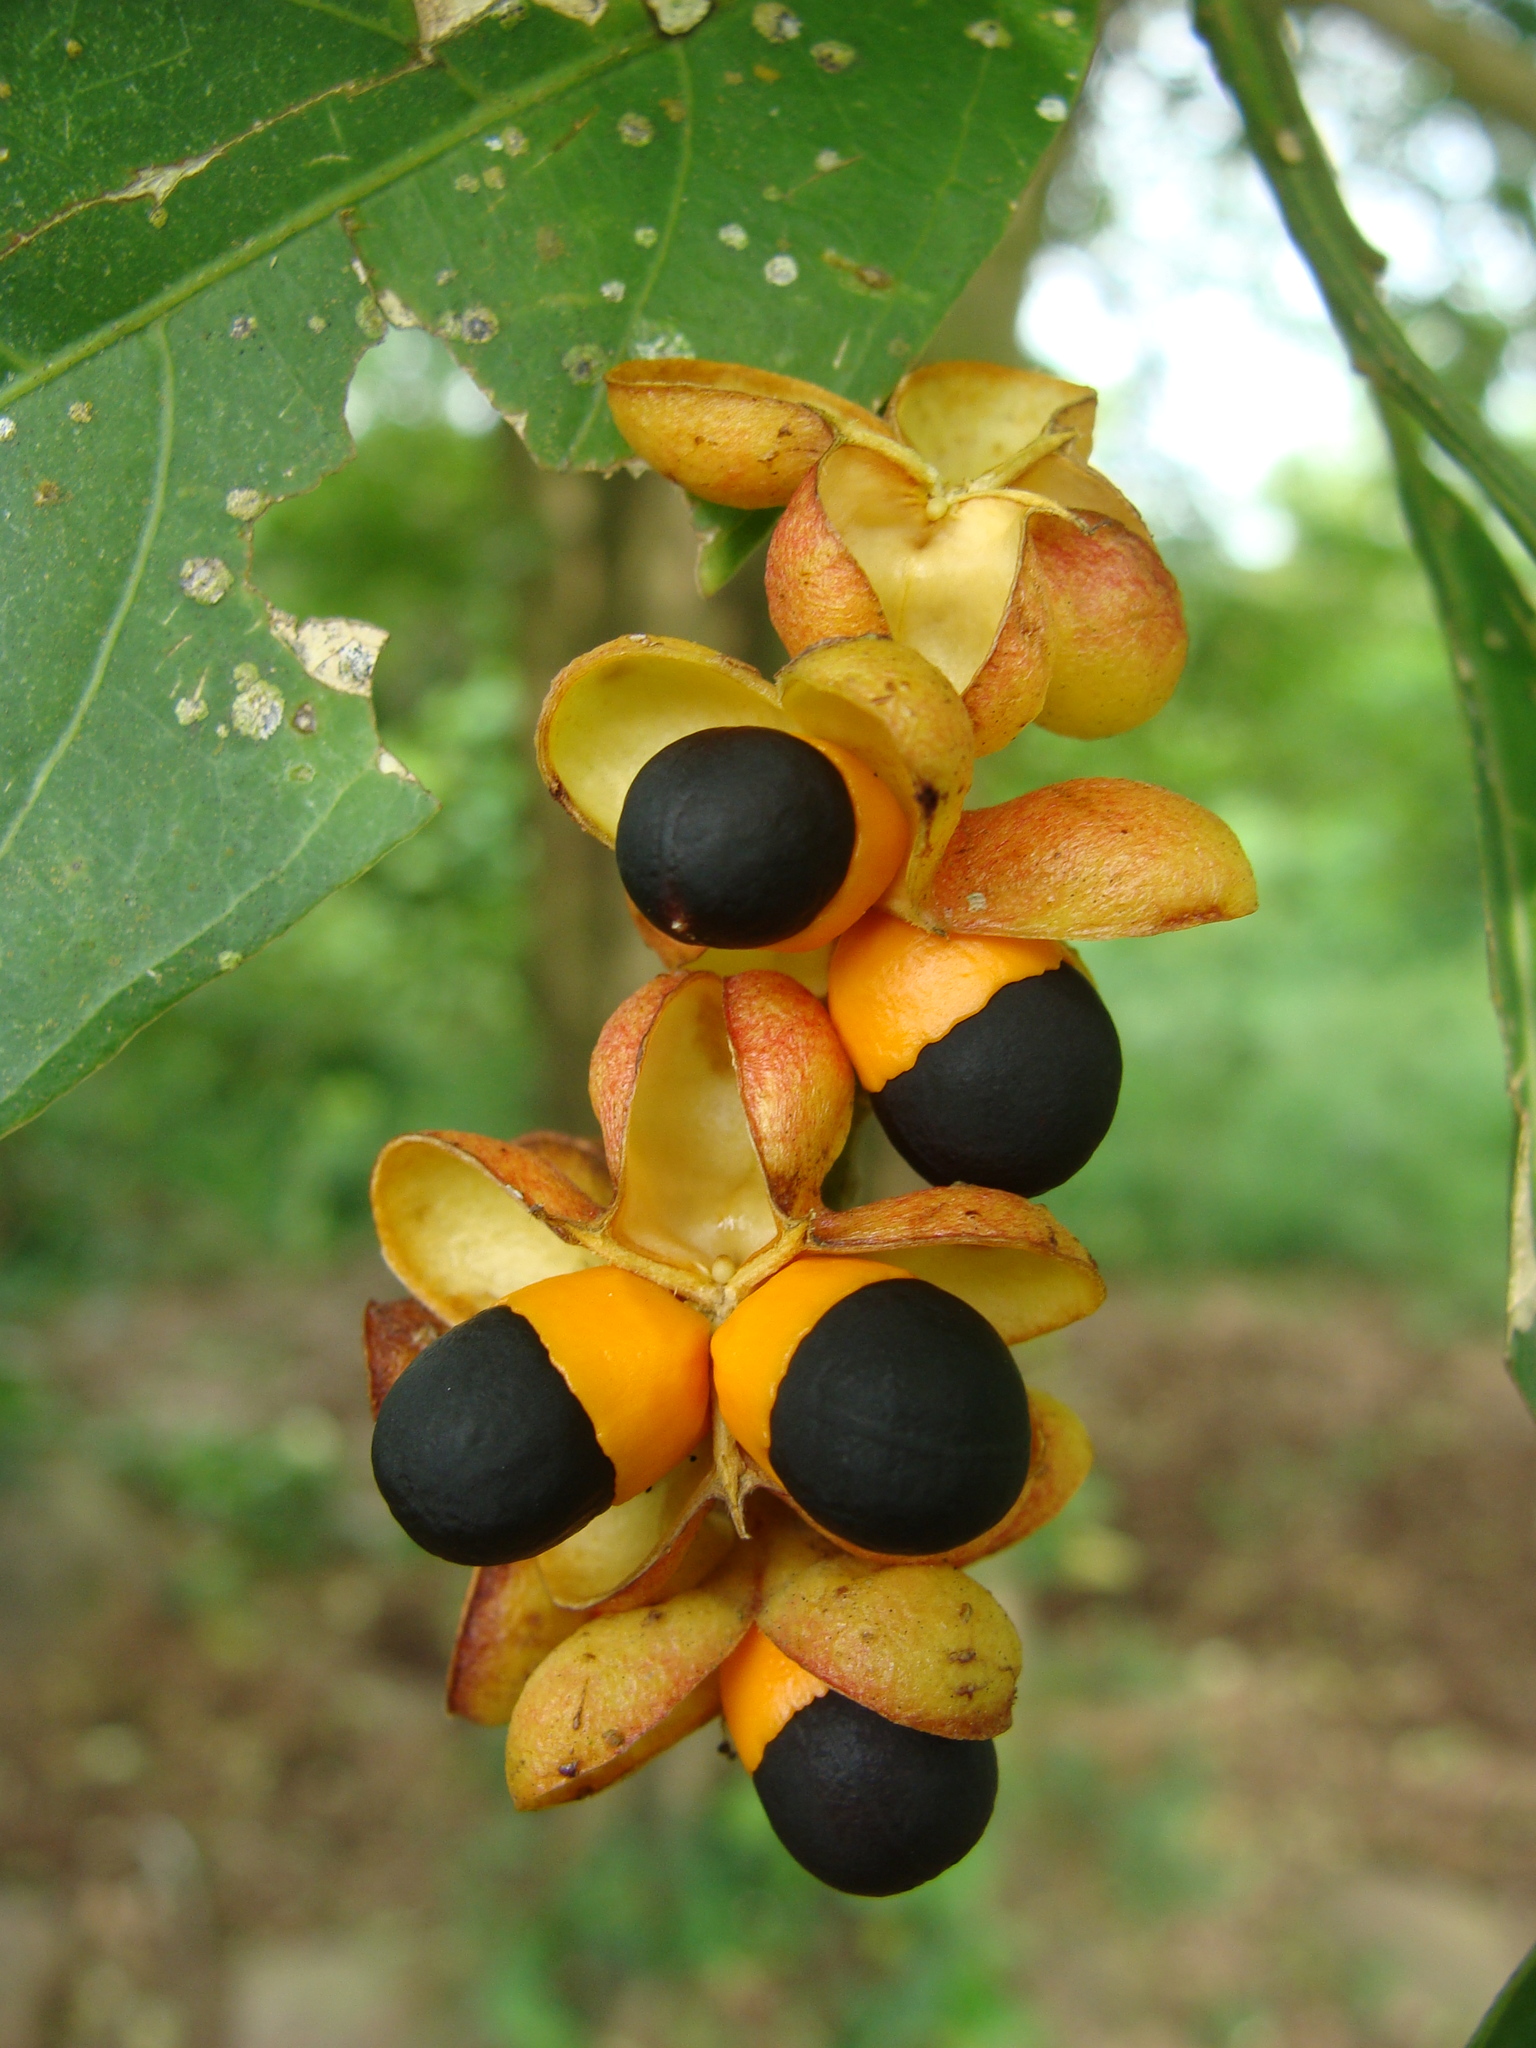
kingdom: Plantae
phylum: Tracheophyta
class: Magnoliopsida
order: Sapindales
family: Sapindaceae
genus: Talisia
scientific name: Talisia macrophylla
